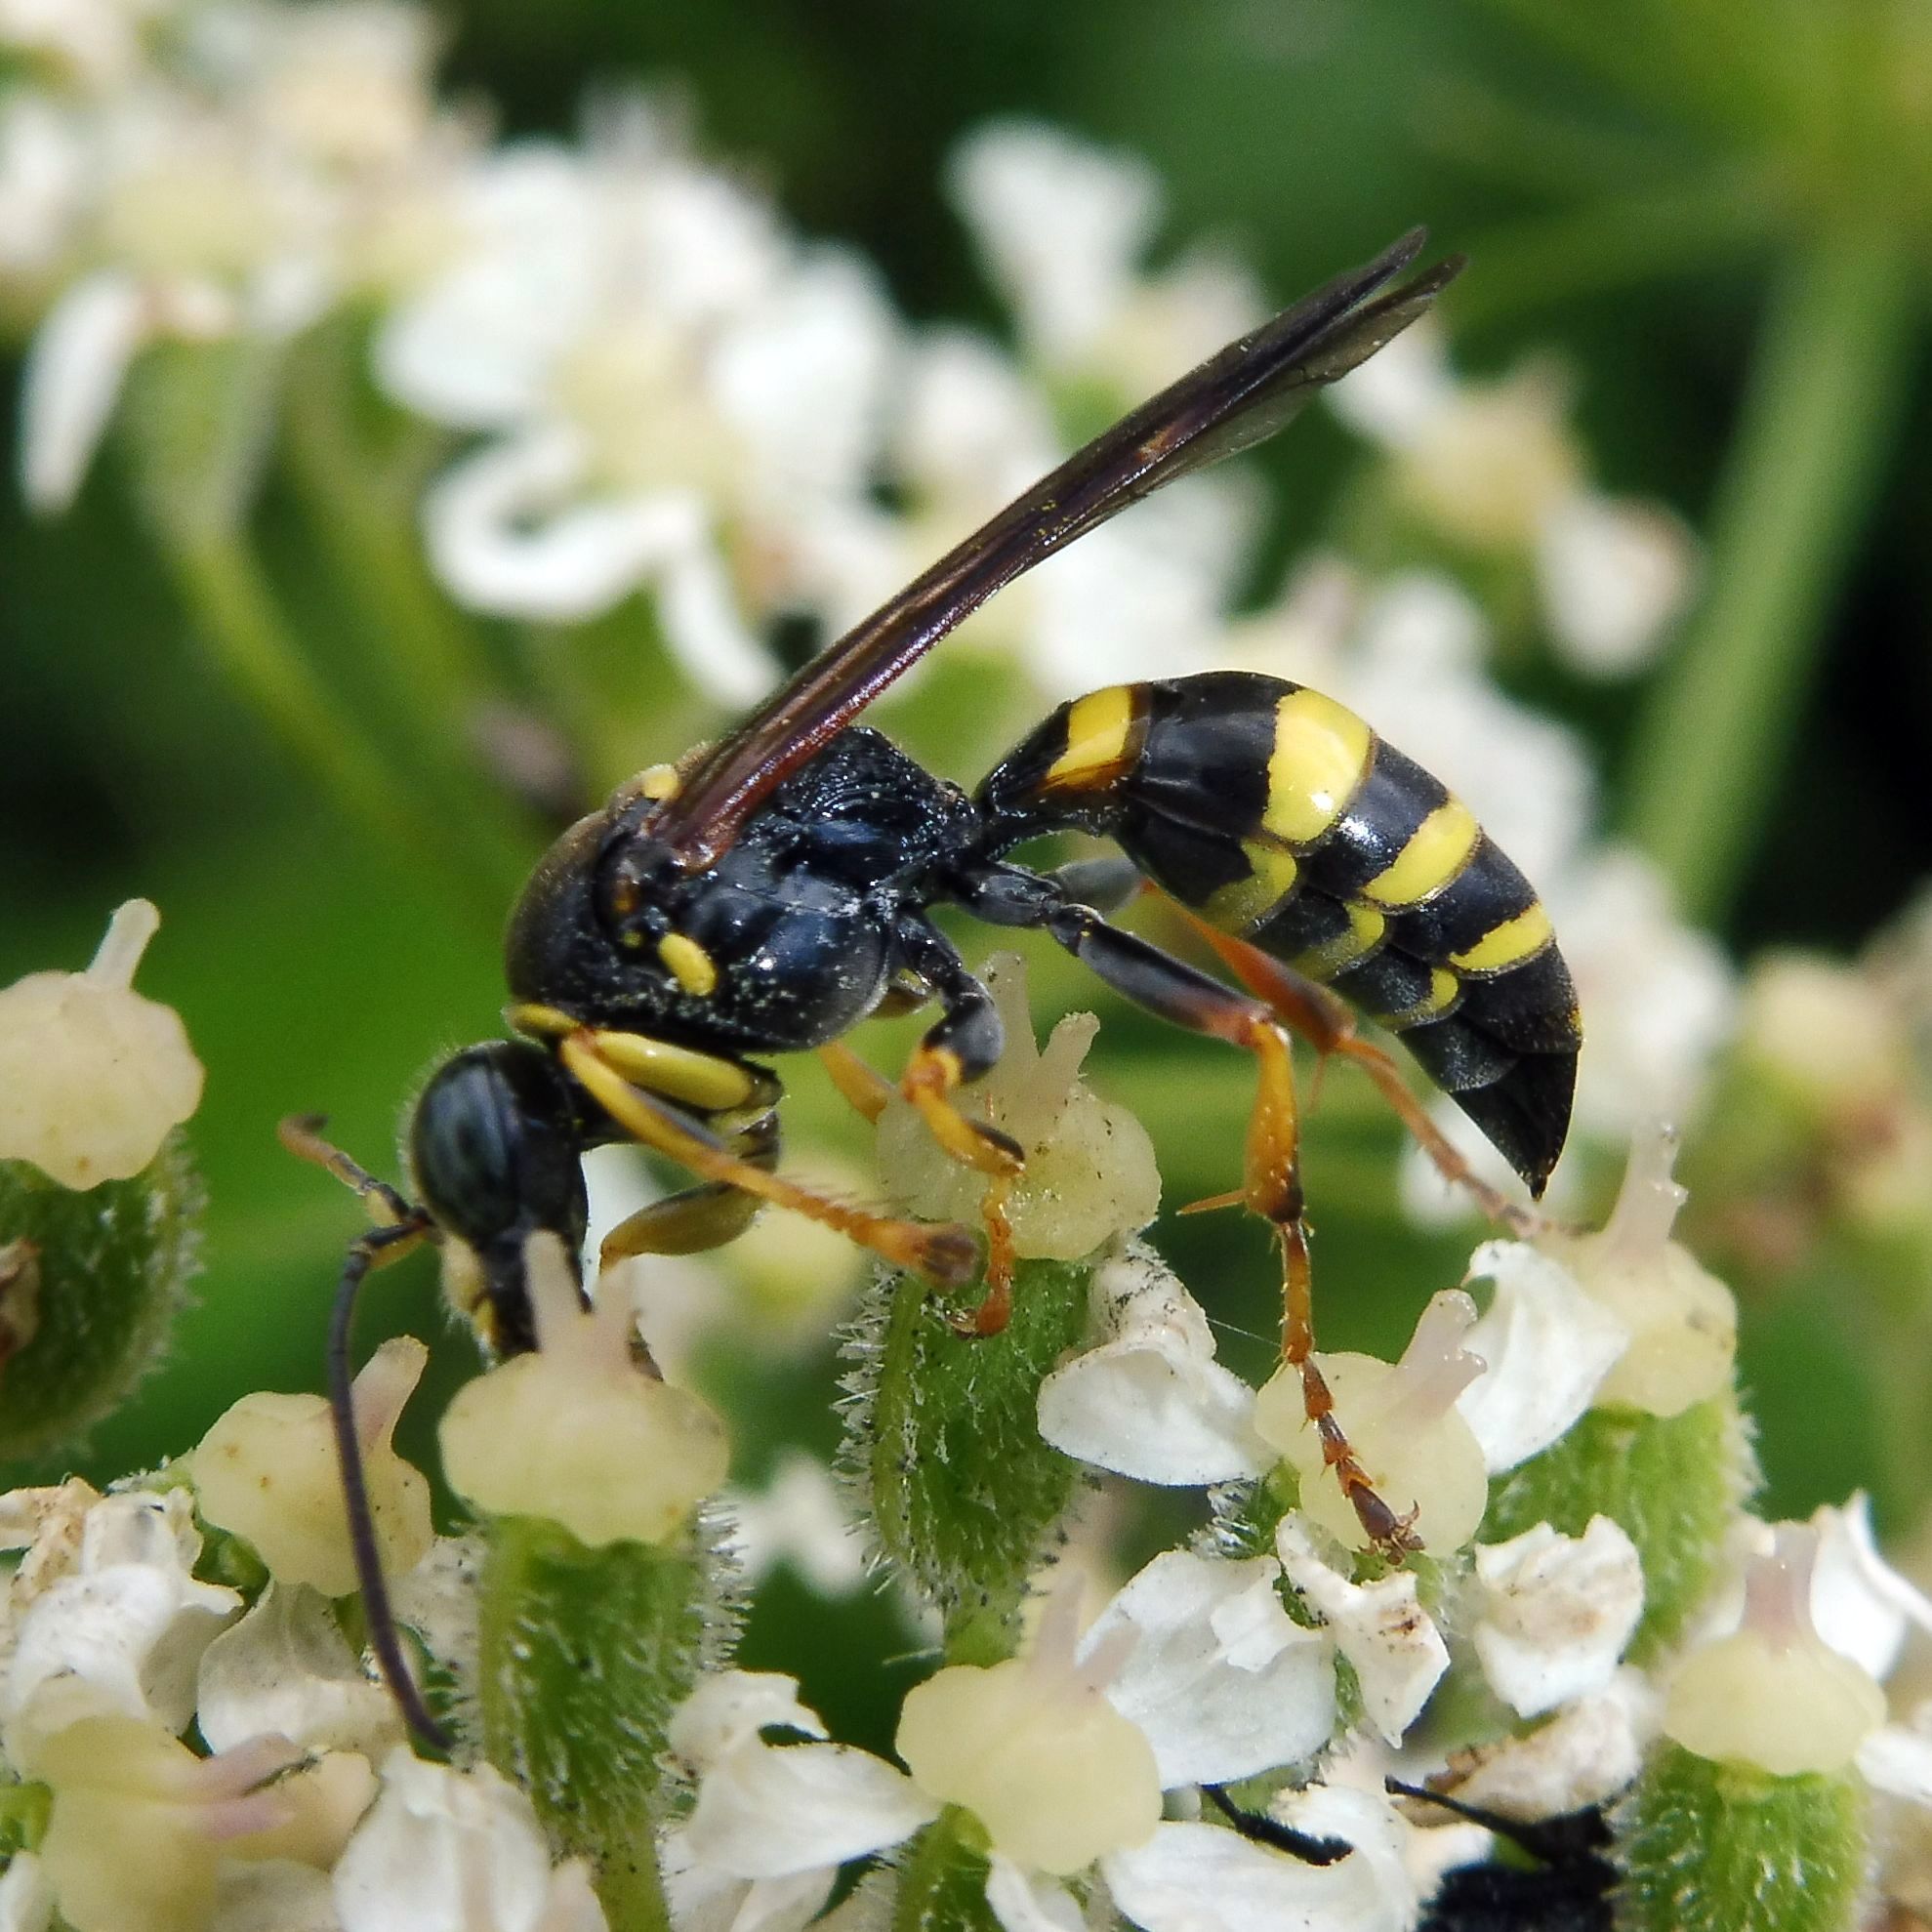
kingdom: Animalia
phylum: Arthropoda
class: Insecta
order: Hymenoptera
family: Crabronidae
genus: Gorytes
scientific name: Gorytes laticinctus
